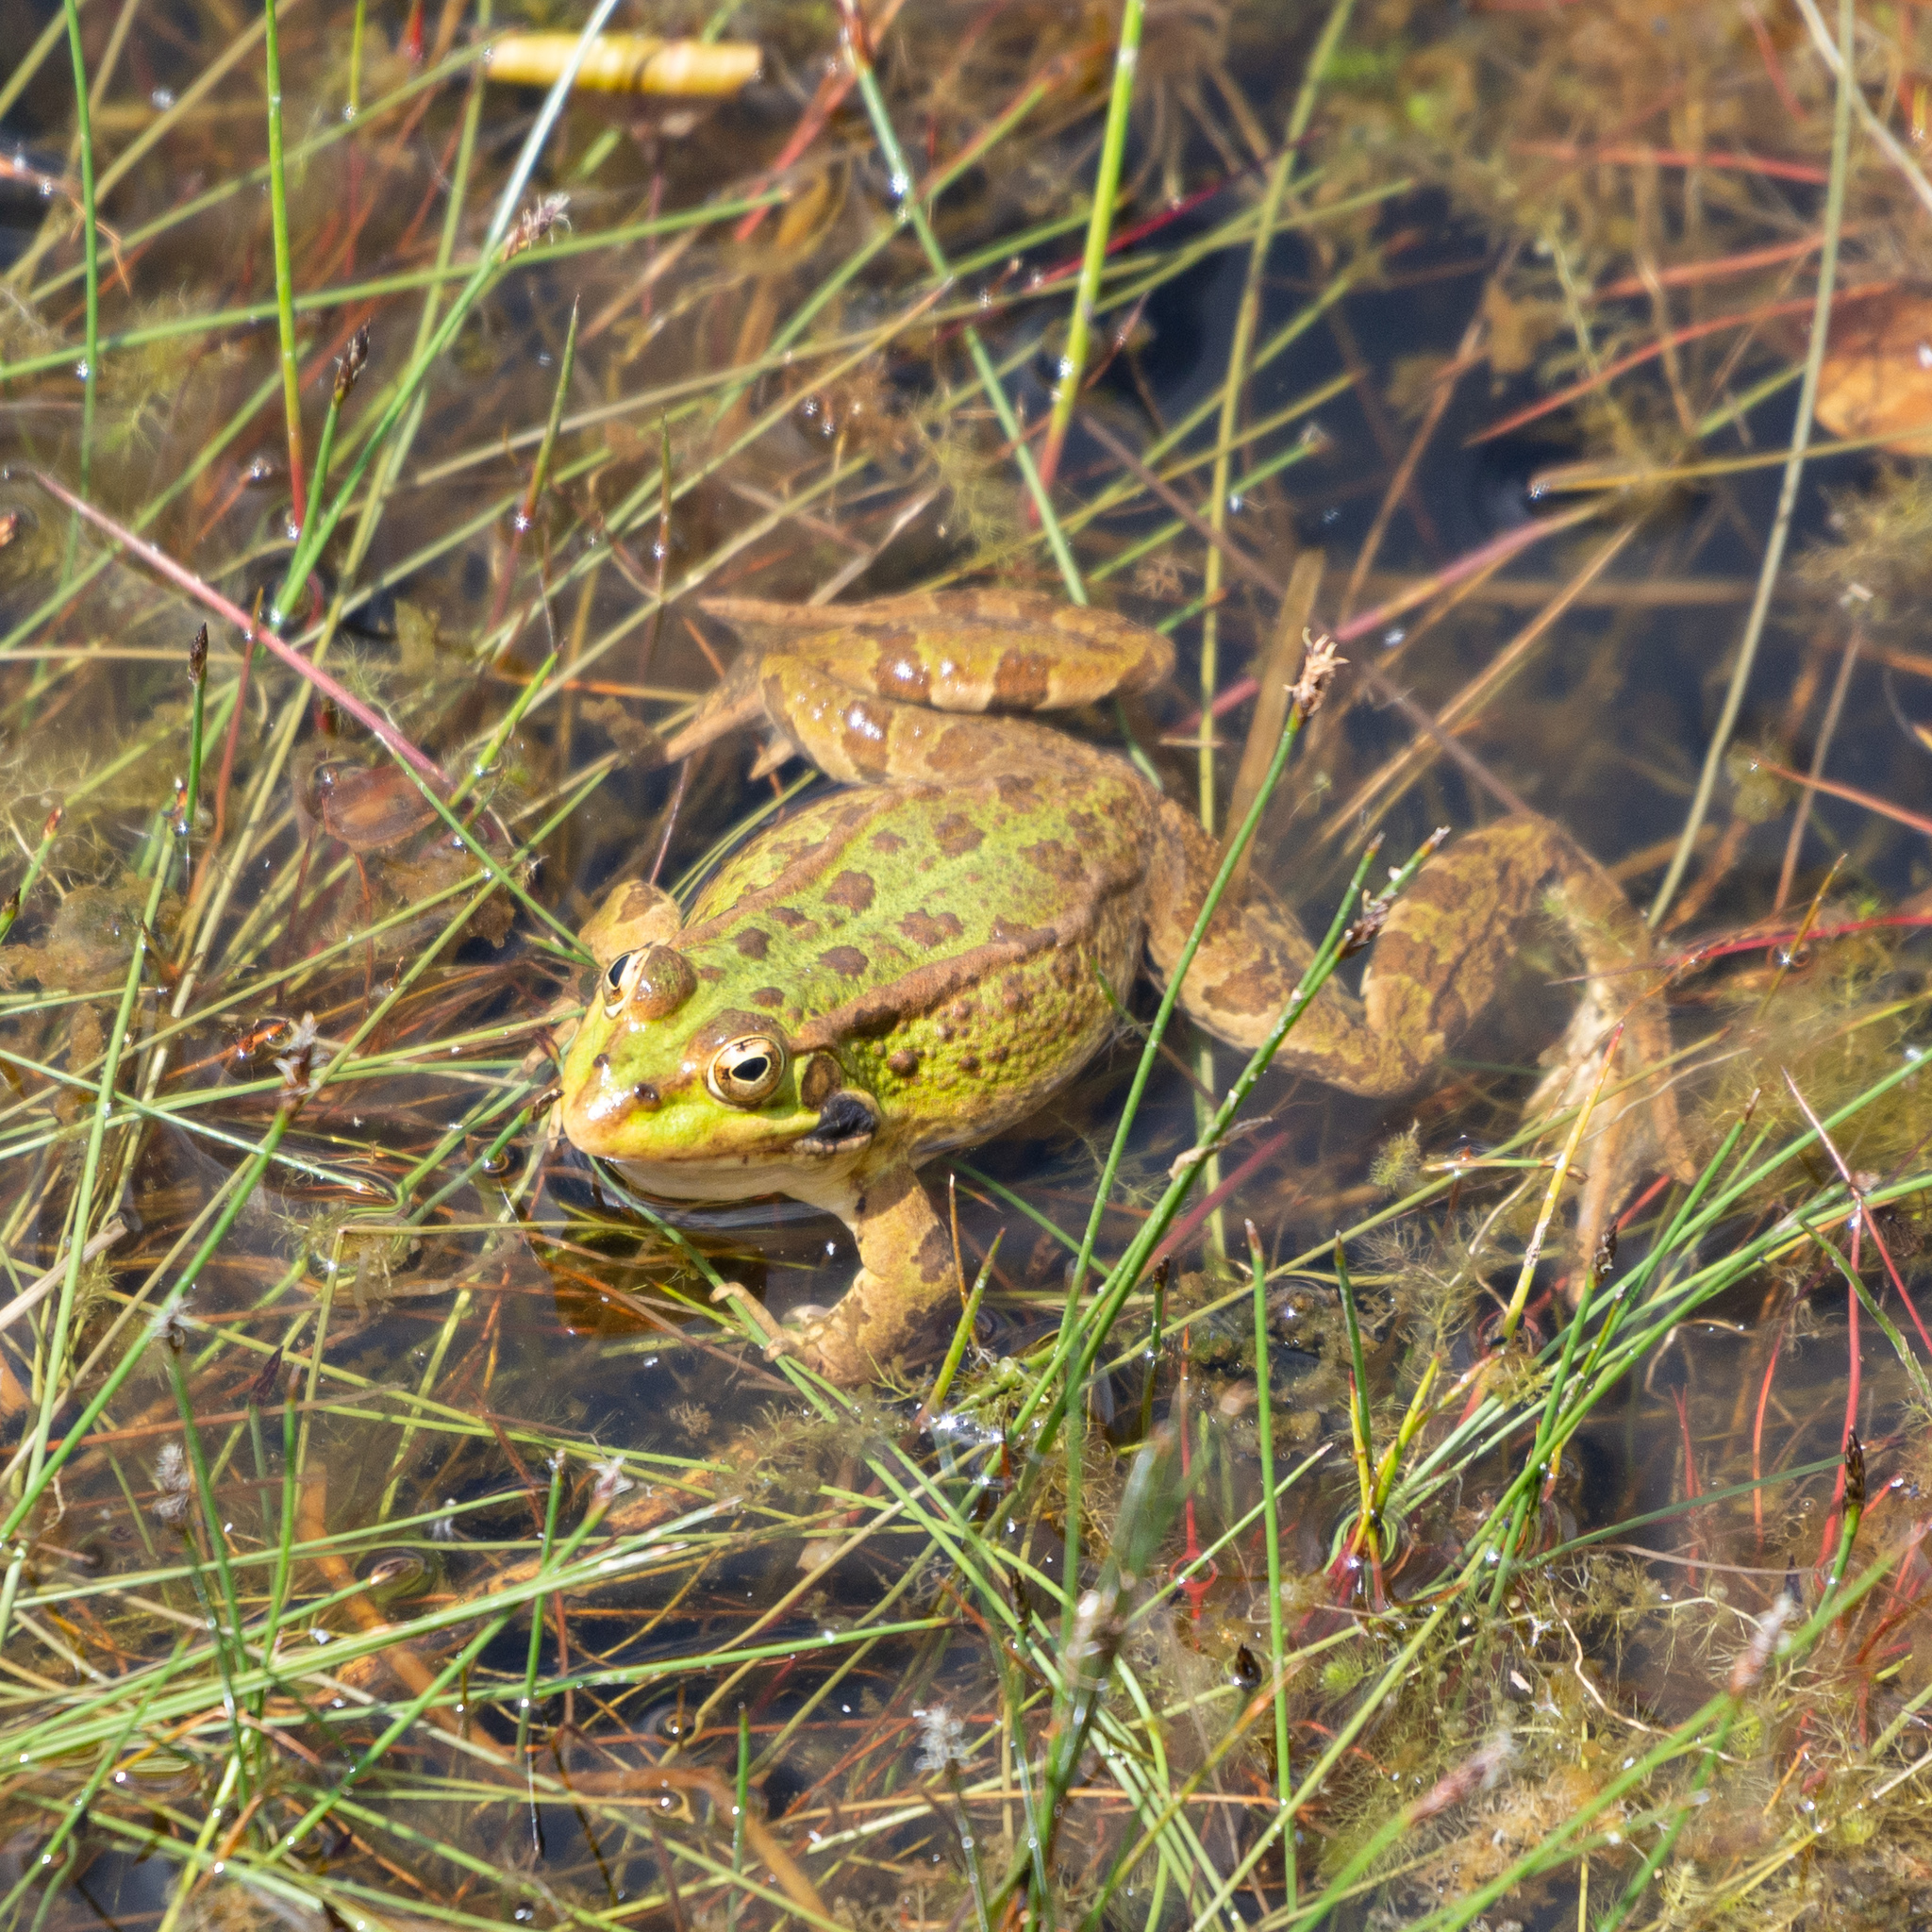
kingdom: Animalia
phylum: Chordata
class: Amphibia
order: Anura
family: Ranidae
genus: Pelophylax
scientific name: Pelophylax perezi
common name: Perez's frog
